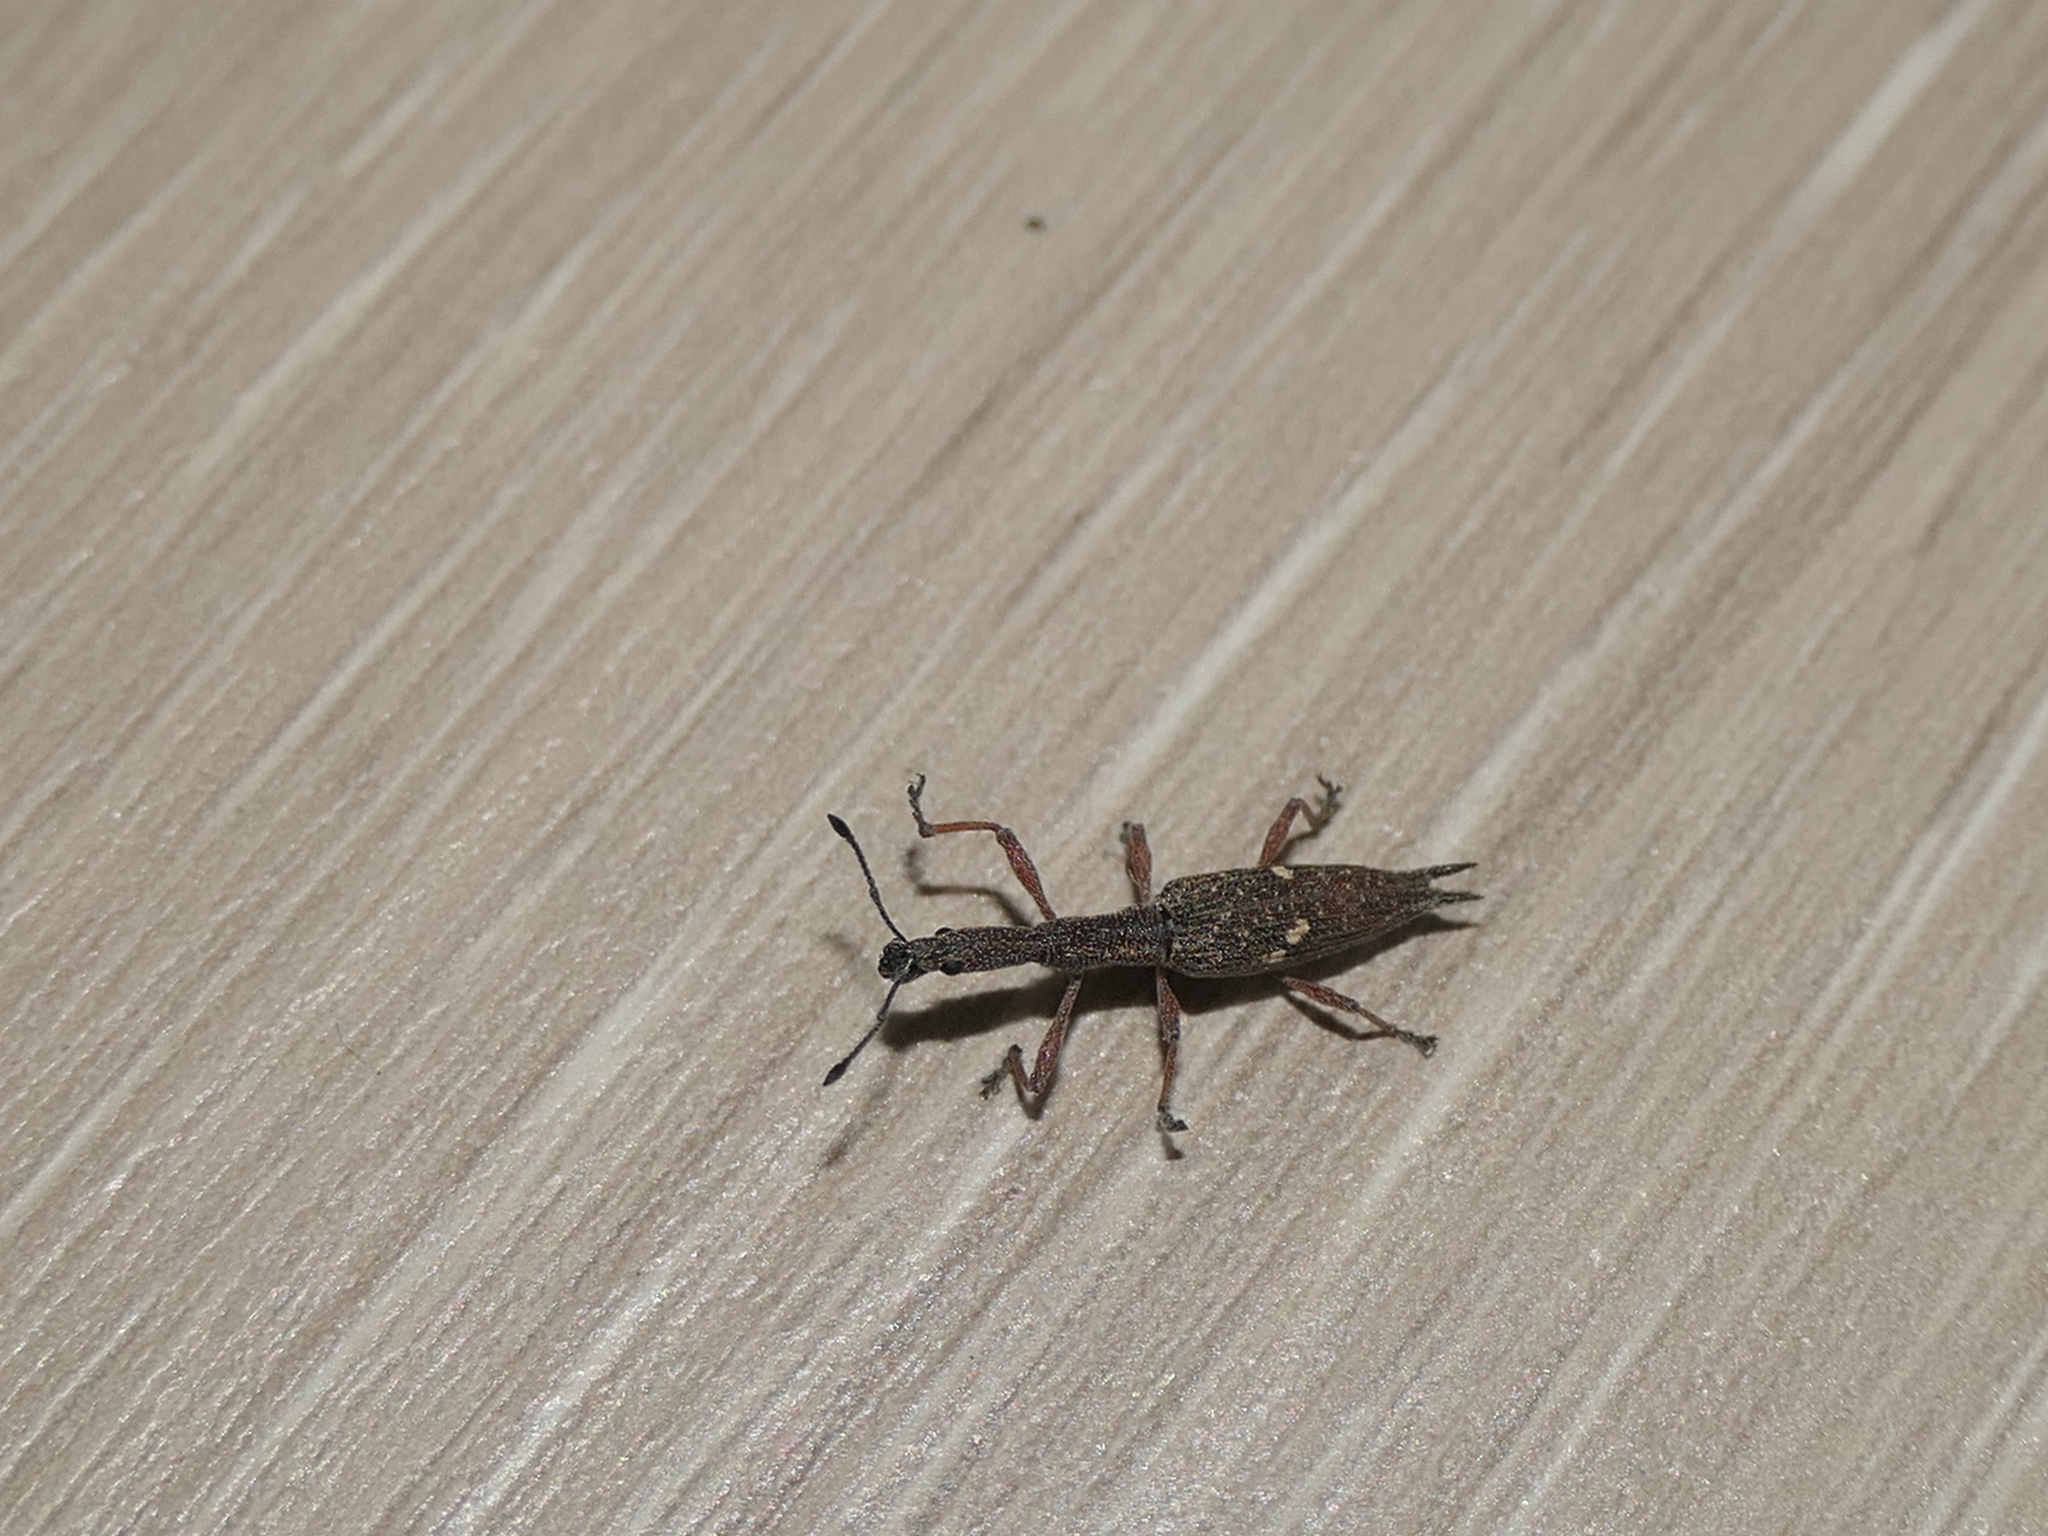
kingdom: Animalia
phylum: Arthropoda
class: Insecta
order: Coleoptera
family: Curculionidae
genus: Rhadinosomus
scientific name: Rhadinosomus acuminatus
